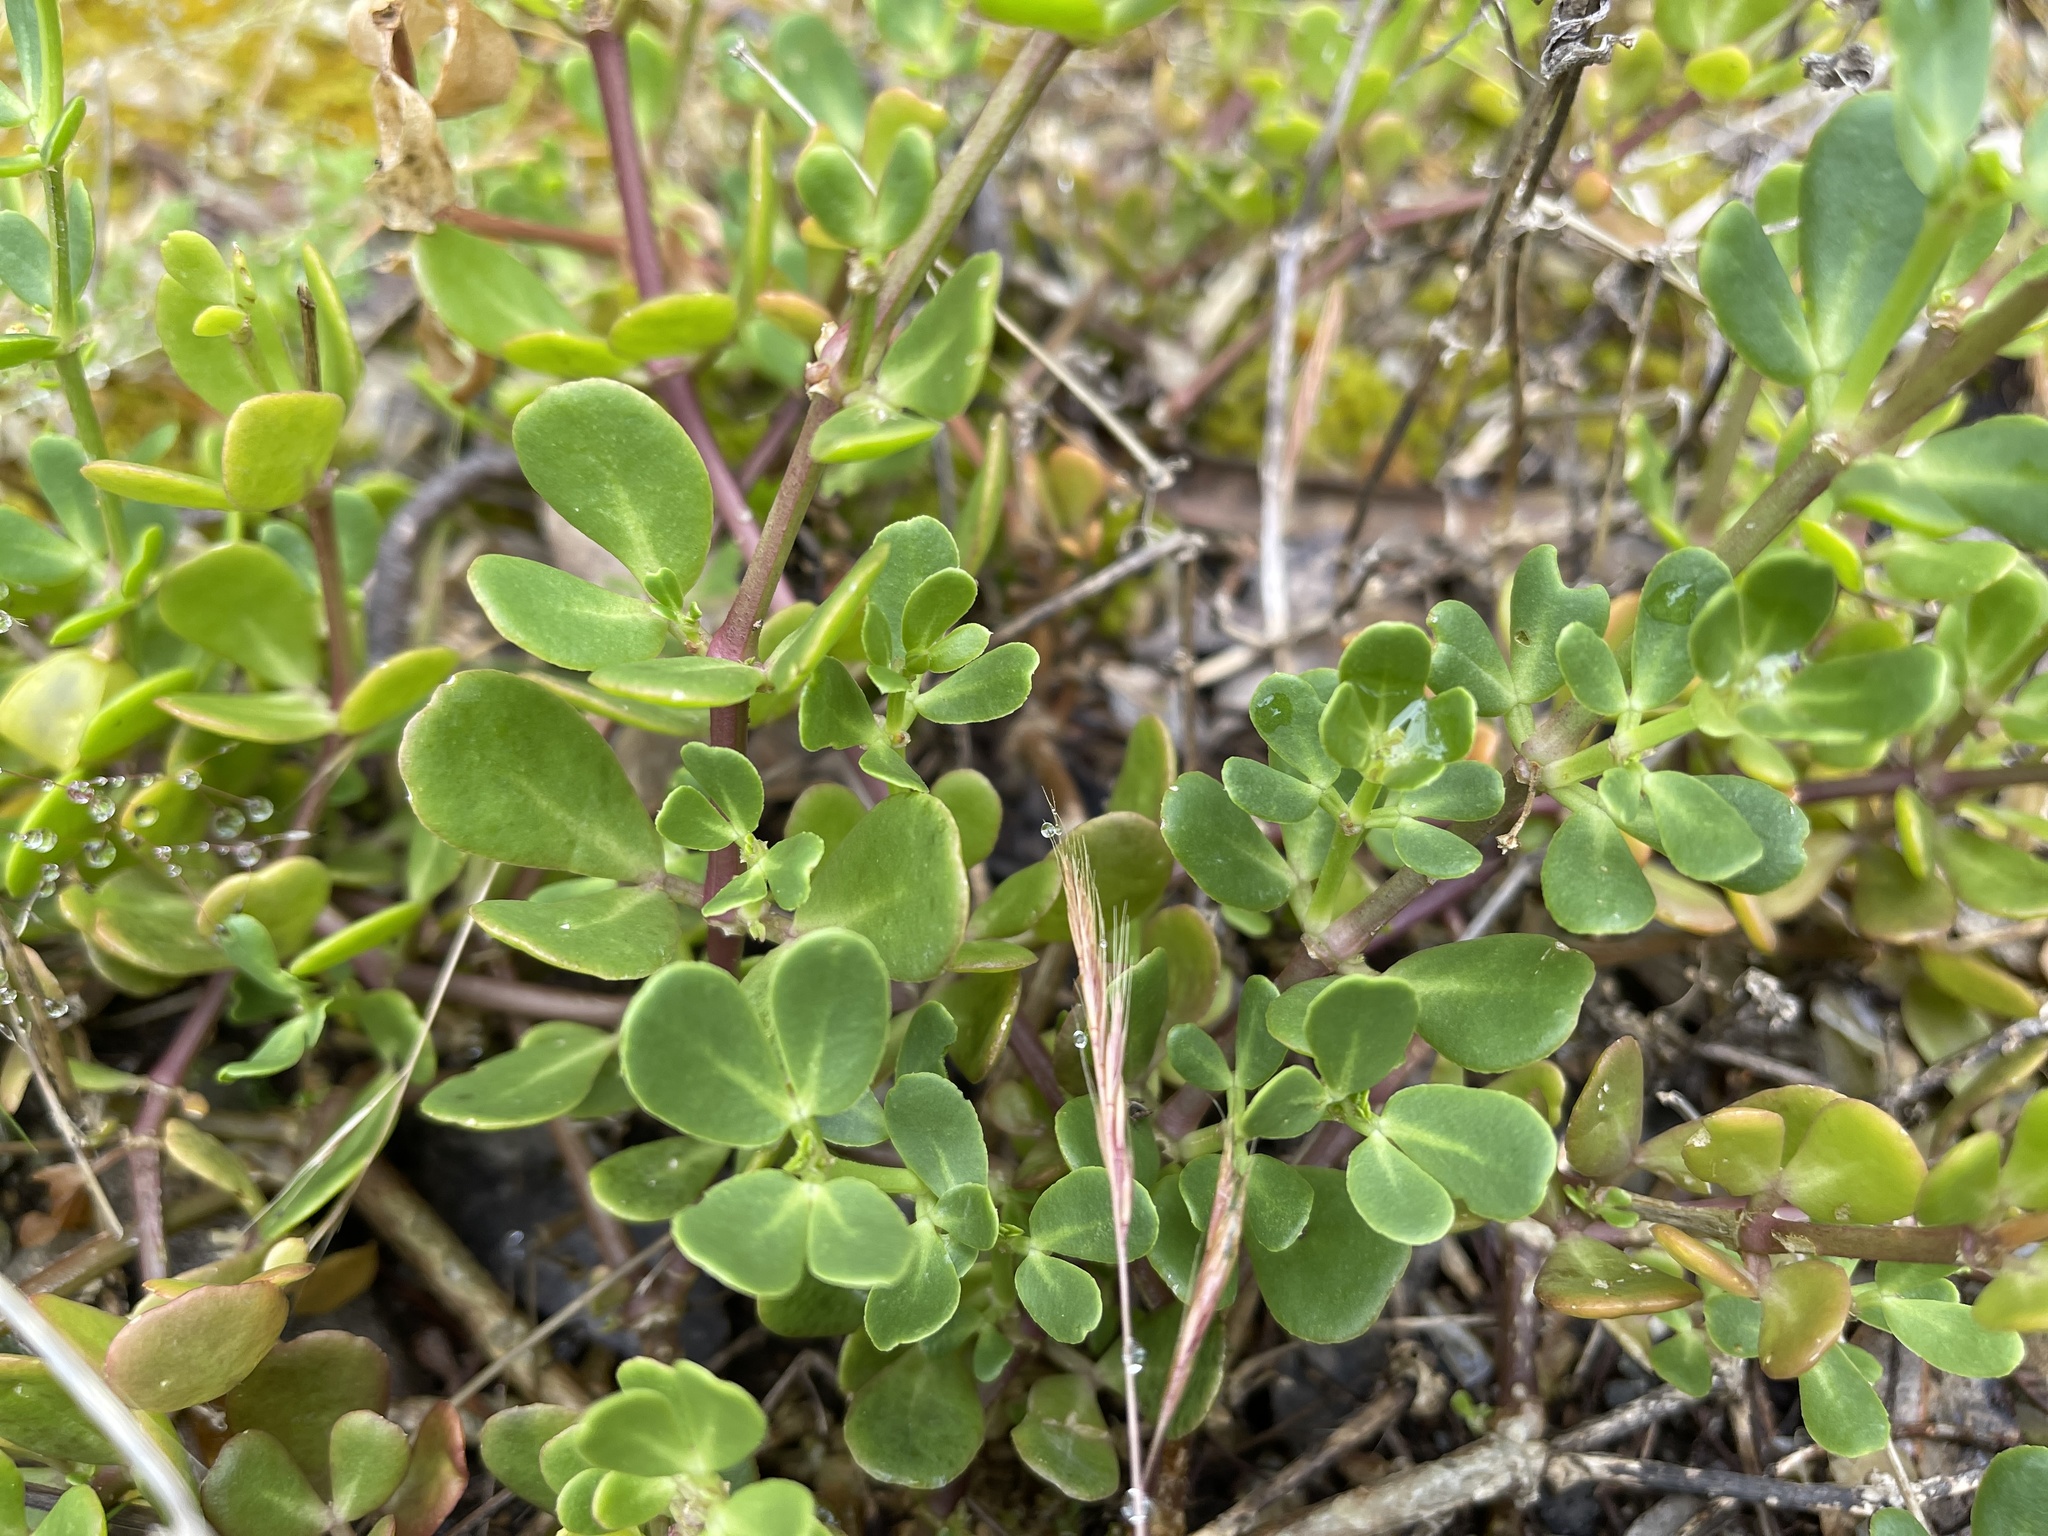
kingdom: Plantae
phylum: Tracheophyta
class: Magnoliopsida
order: Zygophyllales
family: Zygophyllaceae
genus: Roepera
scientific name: Roepera billardieri
